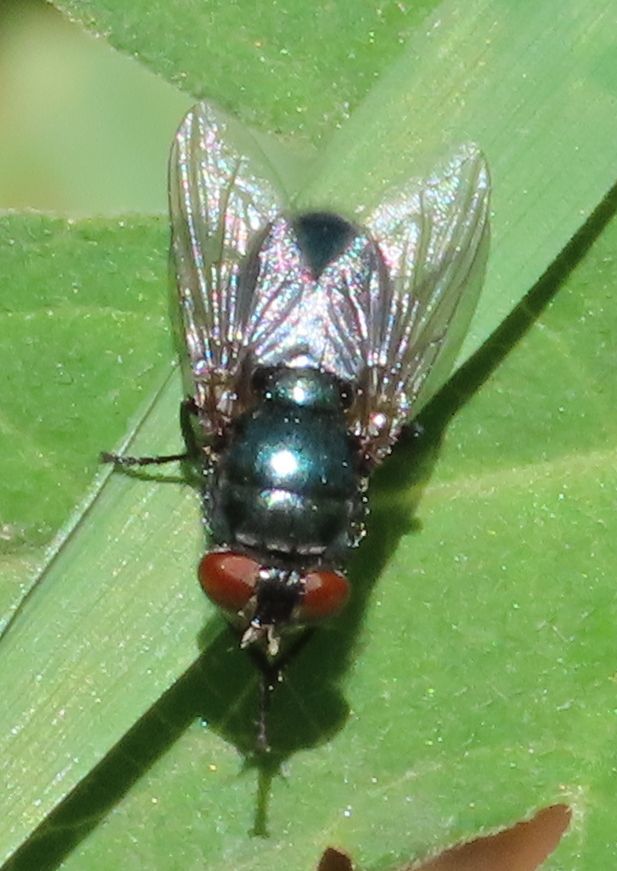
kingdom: Animalia
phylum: Arthropoda
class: Insecta
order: Diptera
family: Calliphoridae
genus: Phormia
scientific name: Phormia regina
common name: Black blow fly
